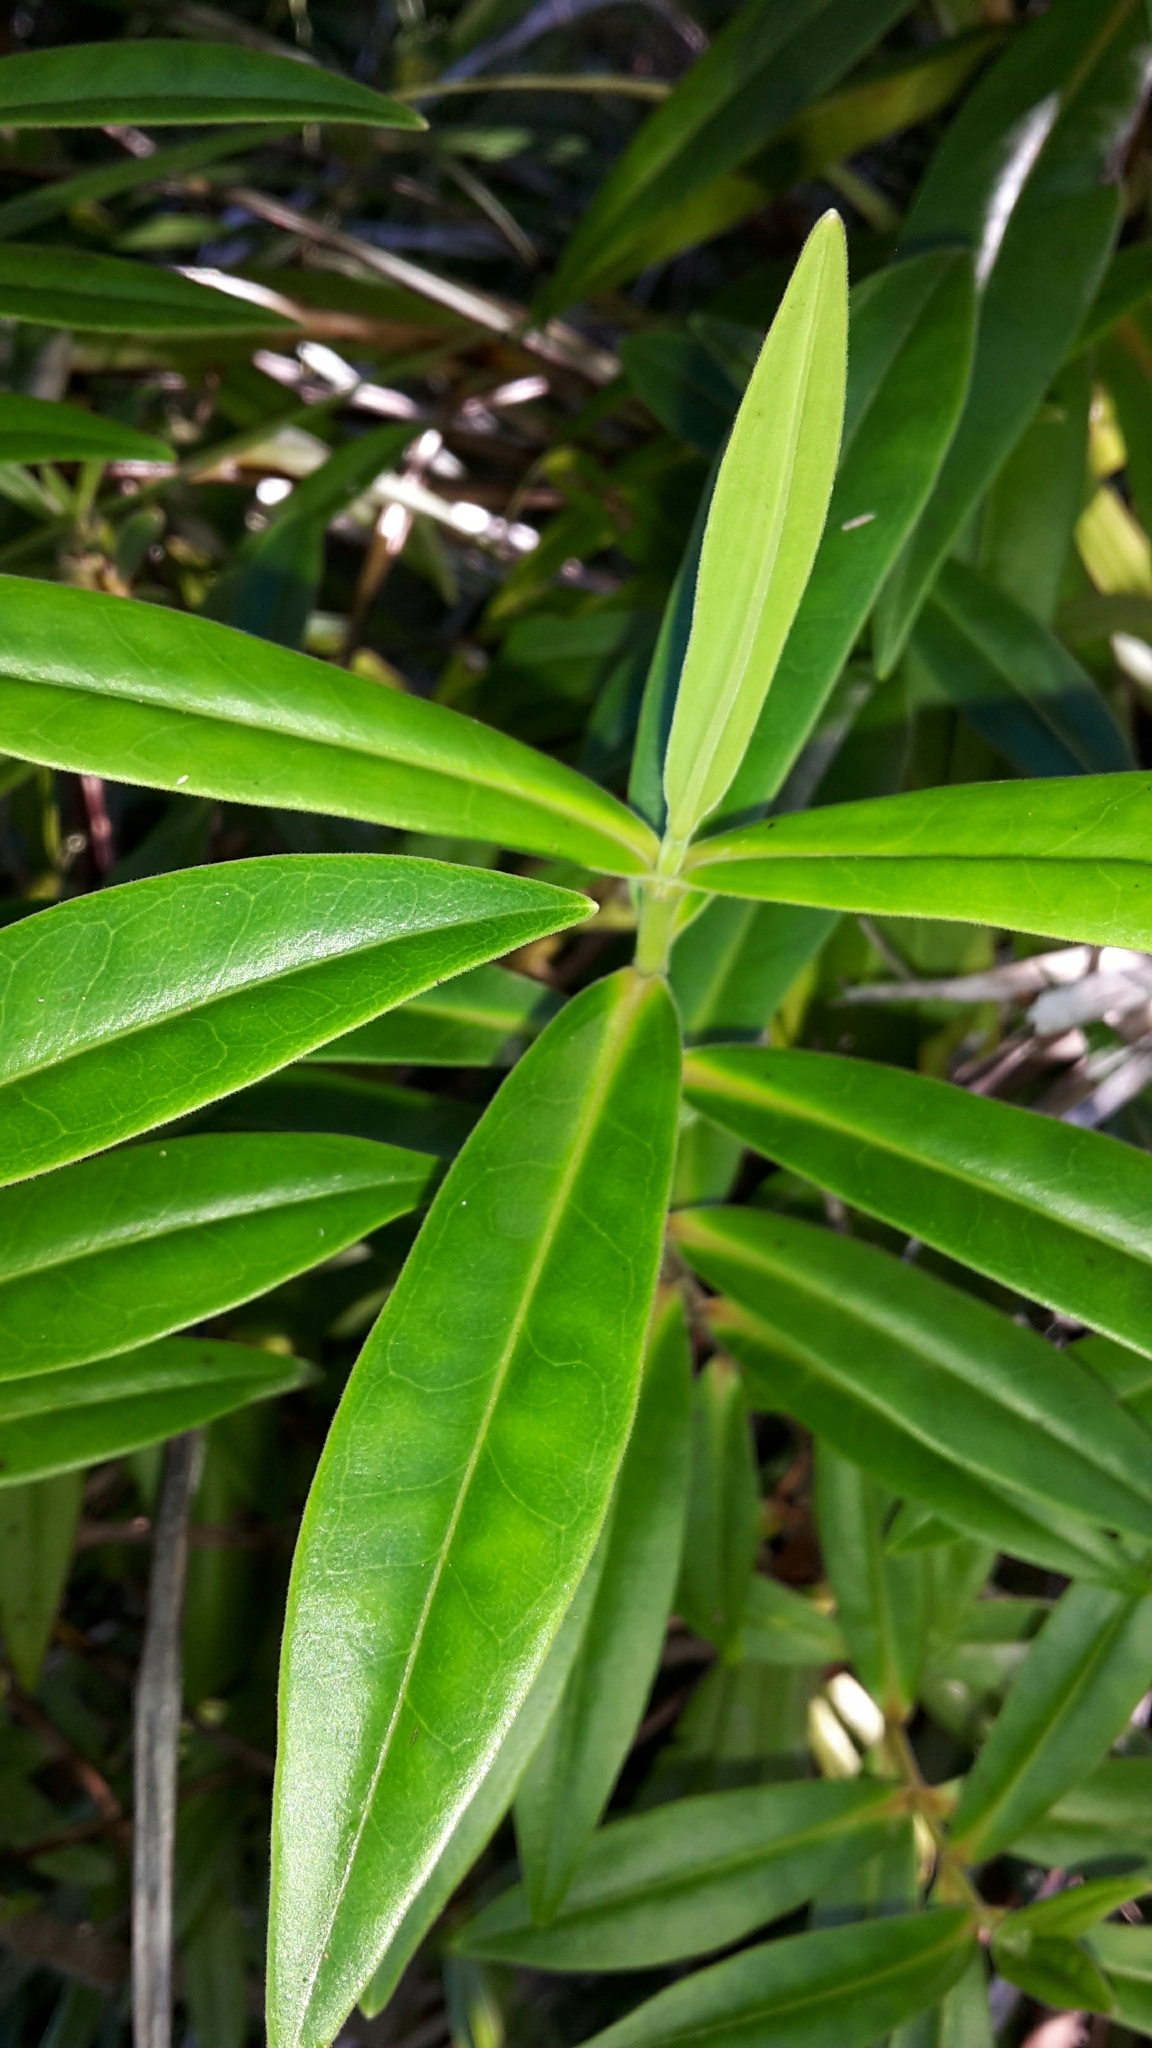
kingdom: Plantae
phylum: Tracheophyta
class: Magnoliopsida
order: Lamiales
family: Plantaginaceae
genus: Veronica
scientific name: Veronica flavida
